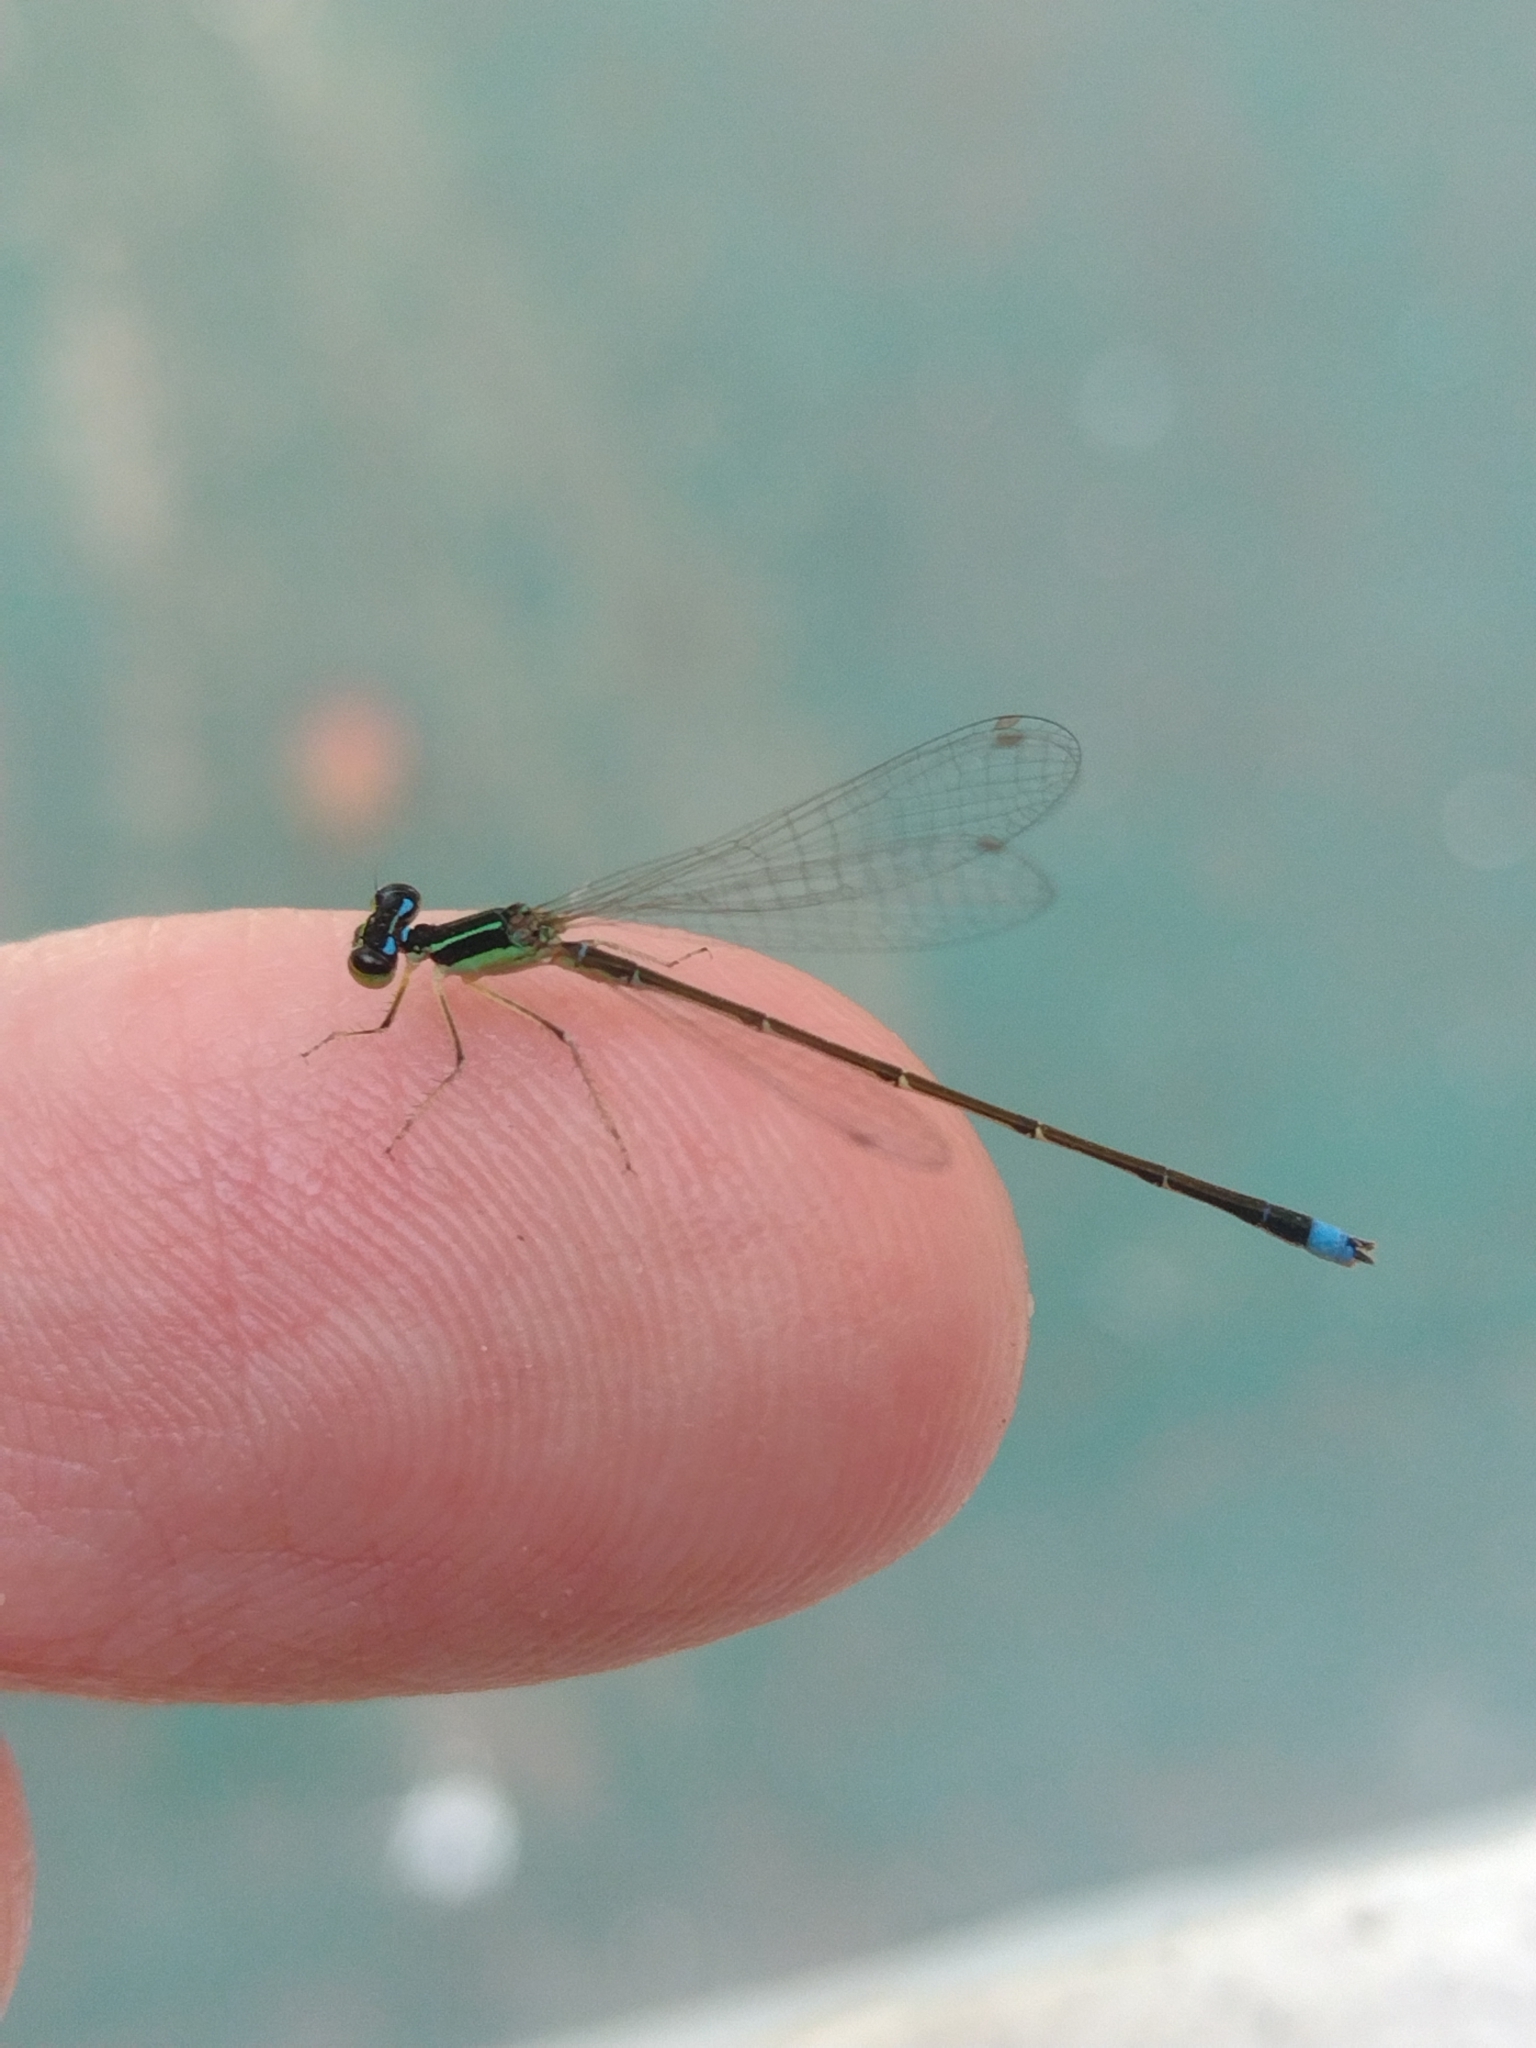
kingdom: Animalia
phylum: Arthropoda
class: Insecta
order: Odonata
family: Coenagrionidae
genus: Argentagrion
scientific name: Argentagrion ambiguum
